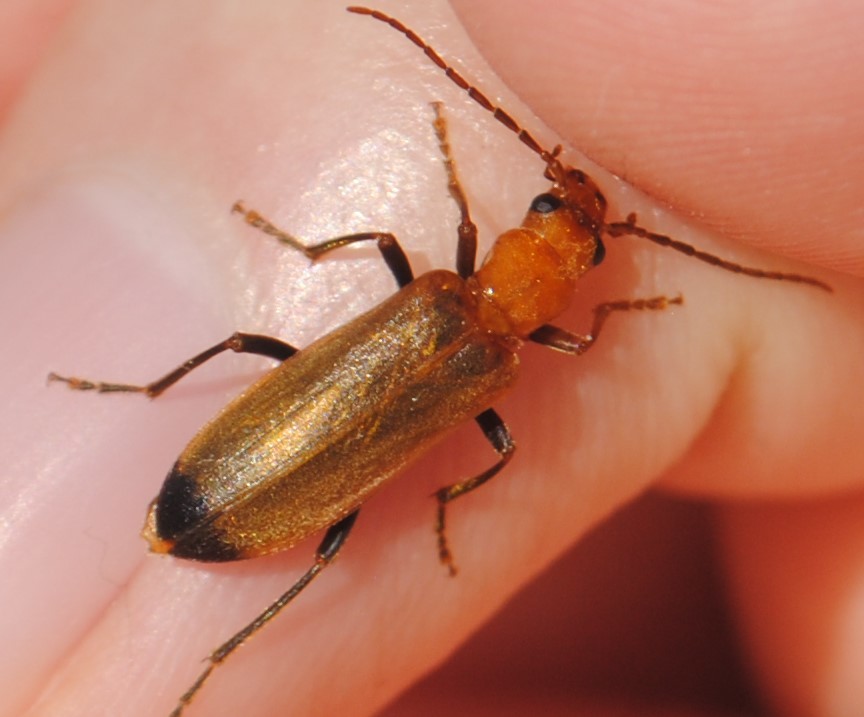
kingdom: Animalia
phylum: Arthropoda
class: Insecta
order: Coleoptera
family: Oedemeridae
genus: Nacerdes
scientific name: Nacerdes melanura
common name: Wharf borer
